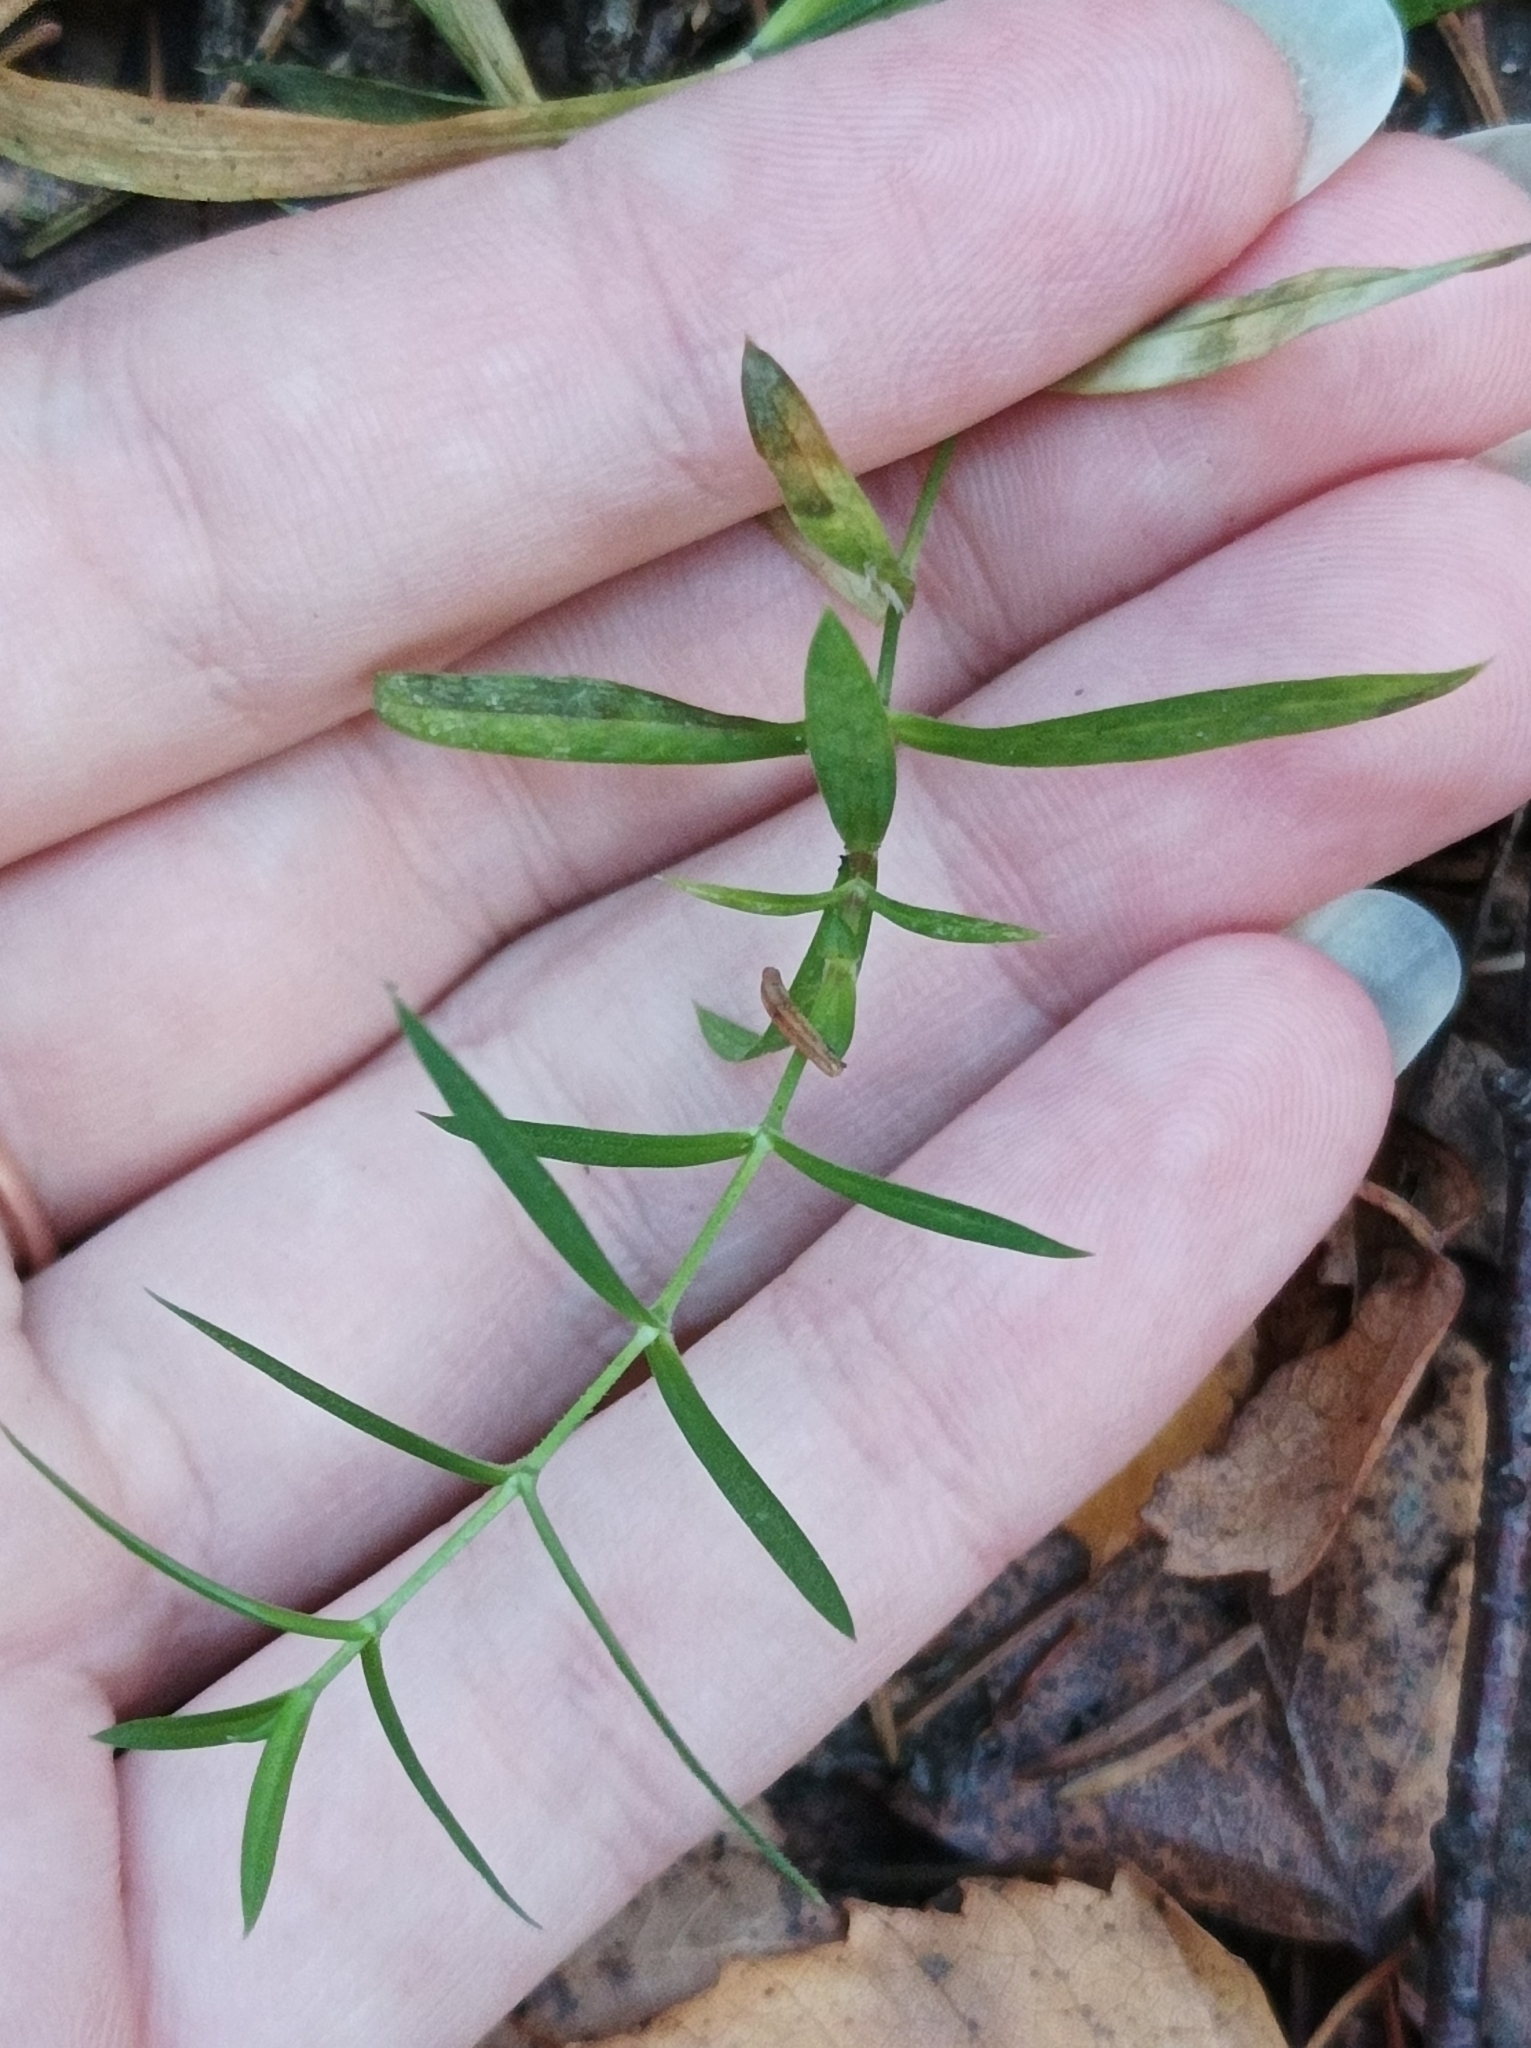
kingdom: Plantae
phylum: Tracheophyta
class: Magnoliopsida
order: Caryophyllales
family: Caryophyllaceae
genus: Rabelera
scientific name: Rabelera holostea
